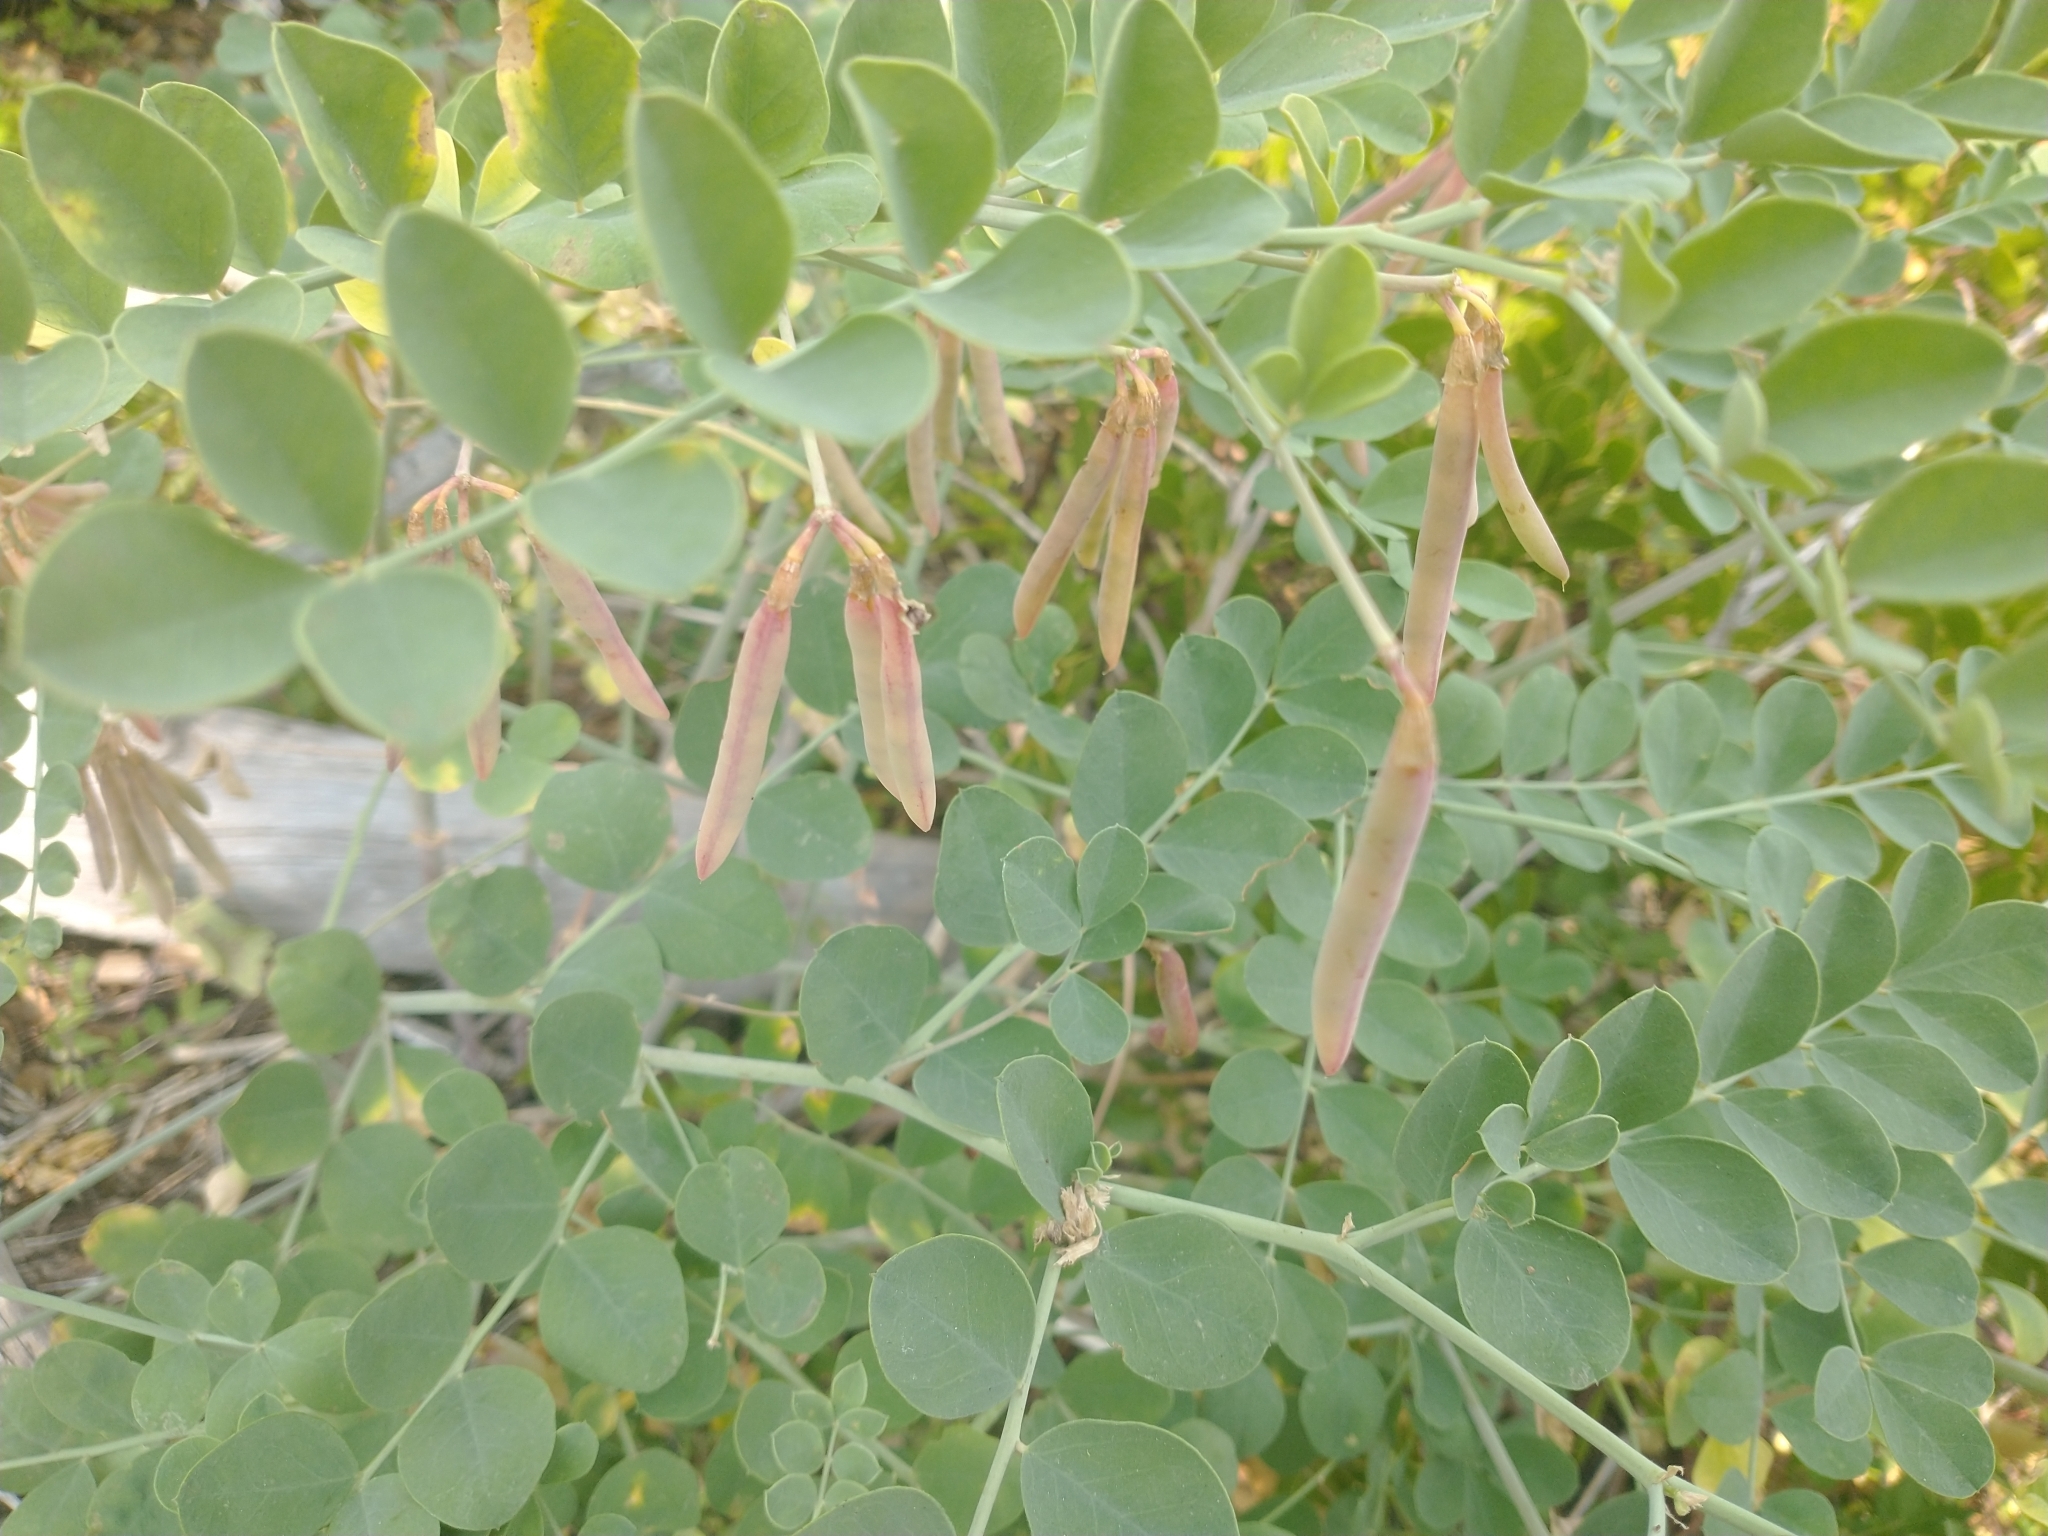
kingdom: Plantae
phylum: Tracheophyta
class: Magnoliopsida
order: Fabales
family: Fabaceae
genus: Hosackia
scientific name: Hosackia crassifolia
